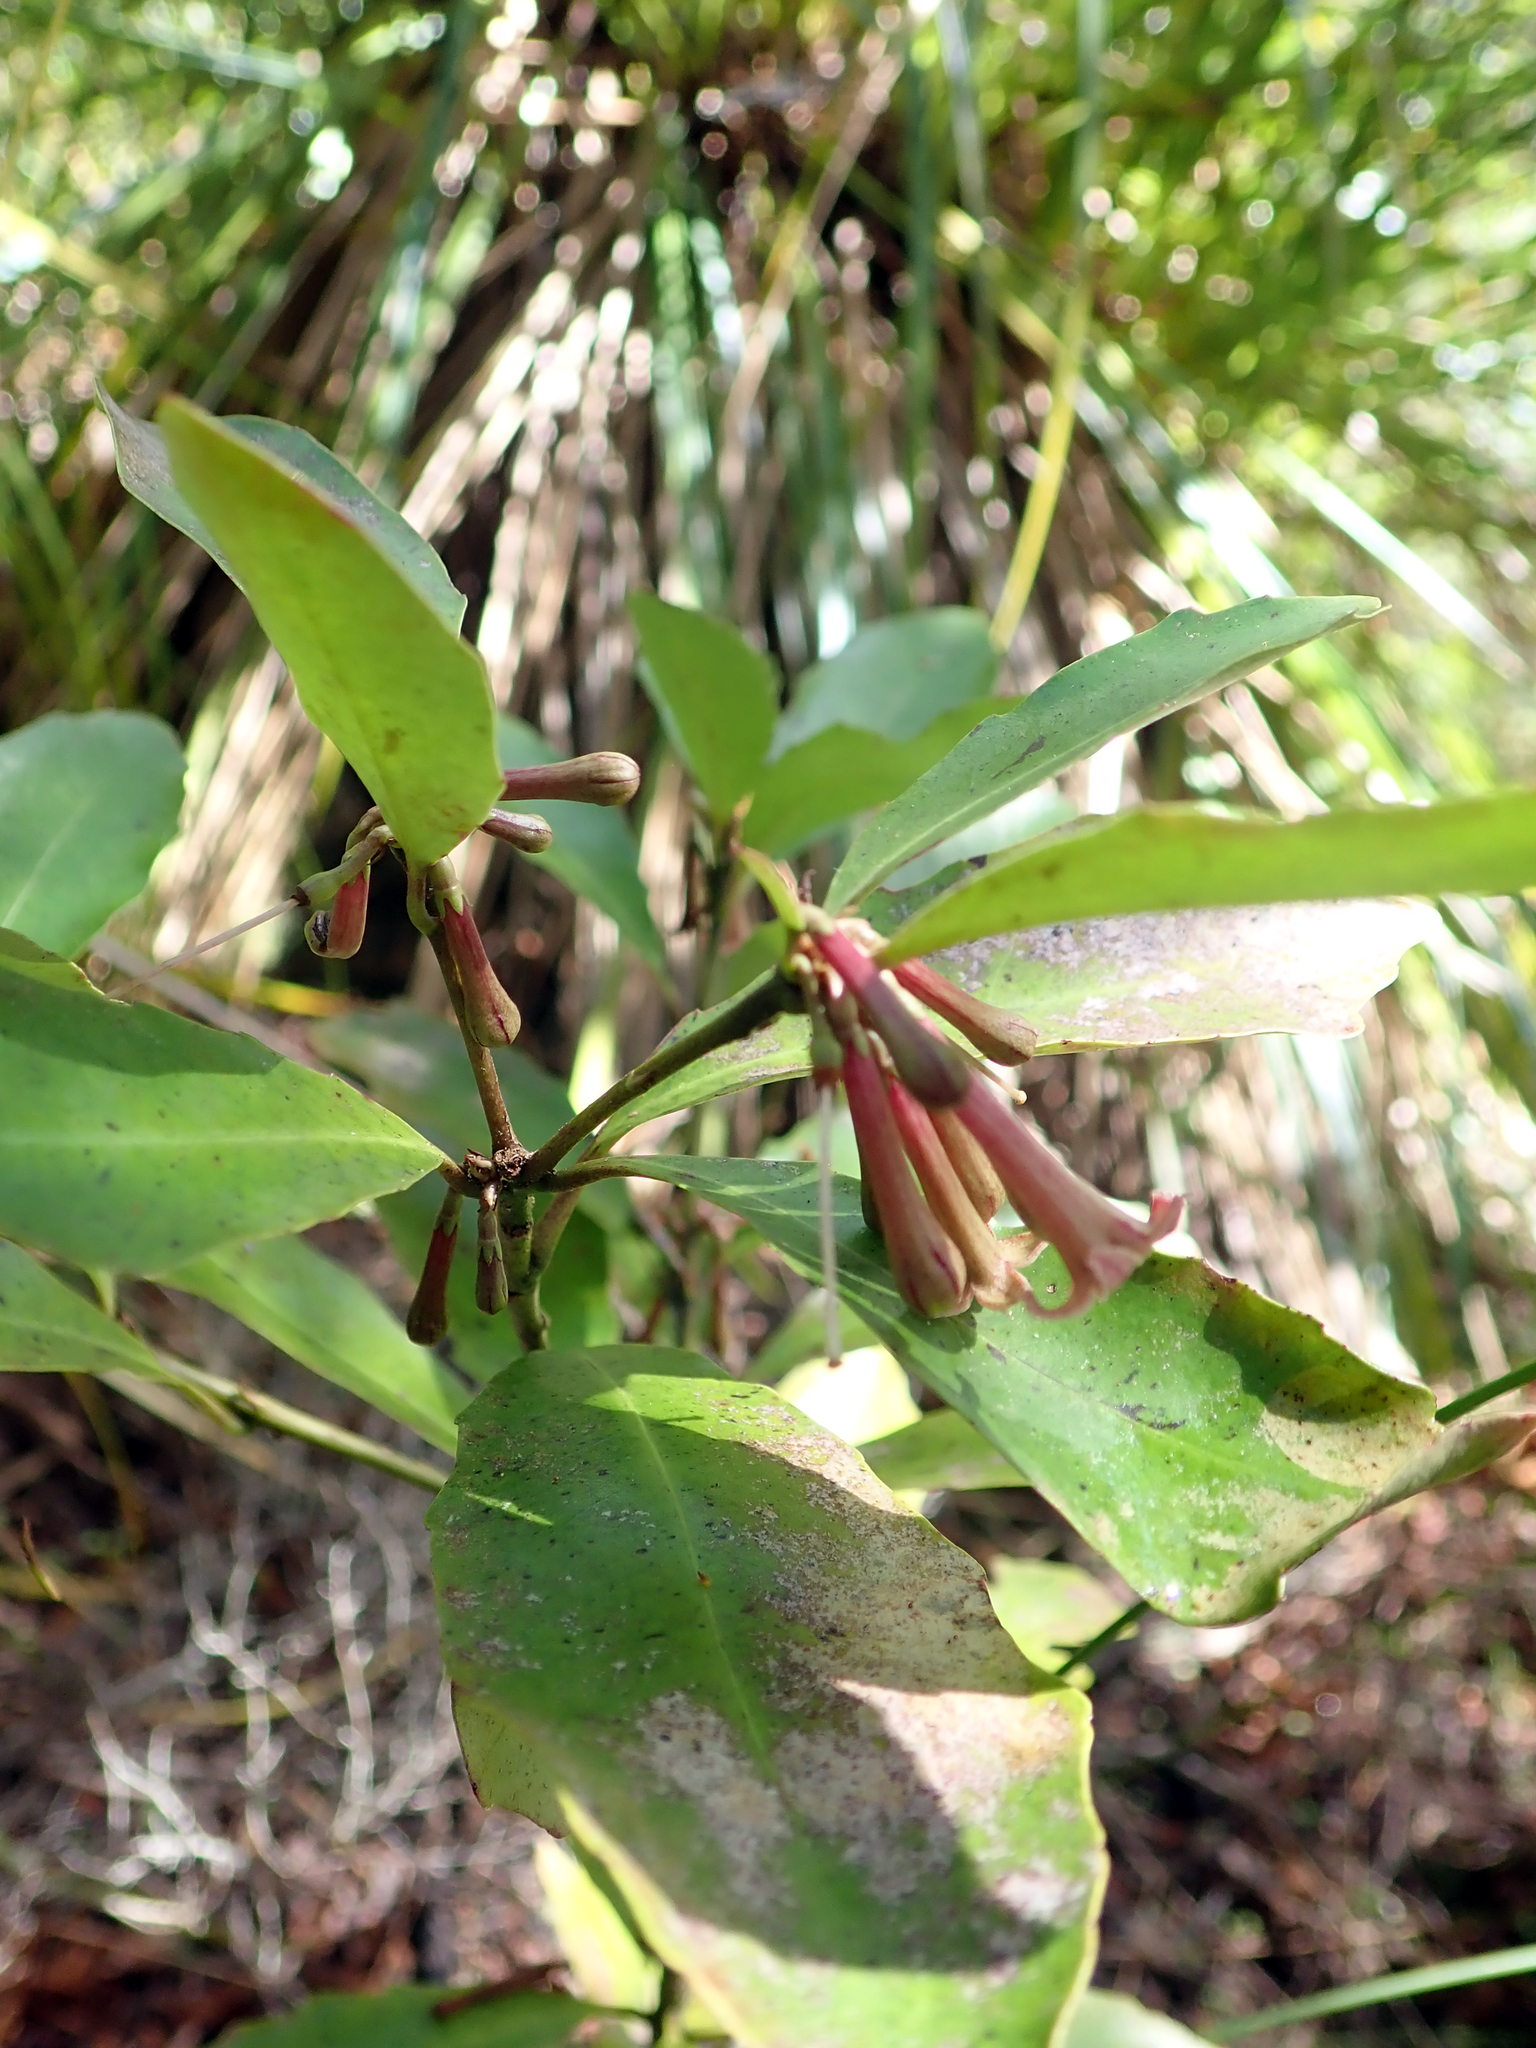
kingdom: Plantae
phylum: Tracheophyta
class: Magnoliopsida
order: Asterales
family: Alseuosmiaceae
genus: Alseuosmia
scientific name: Alseuosmia quercifolia
